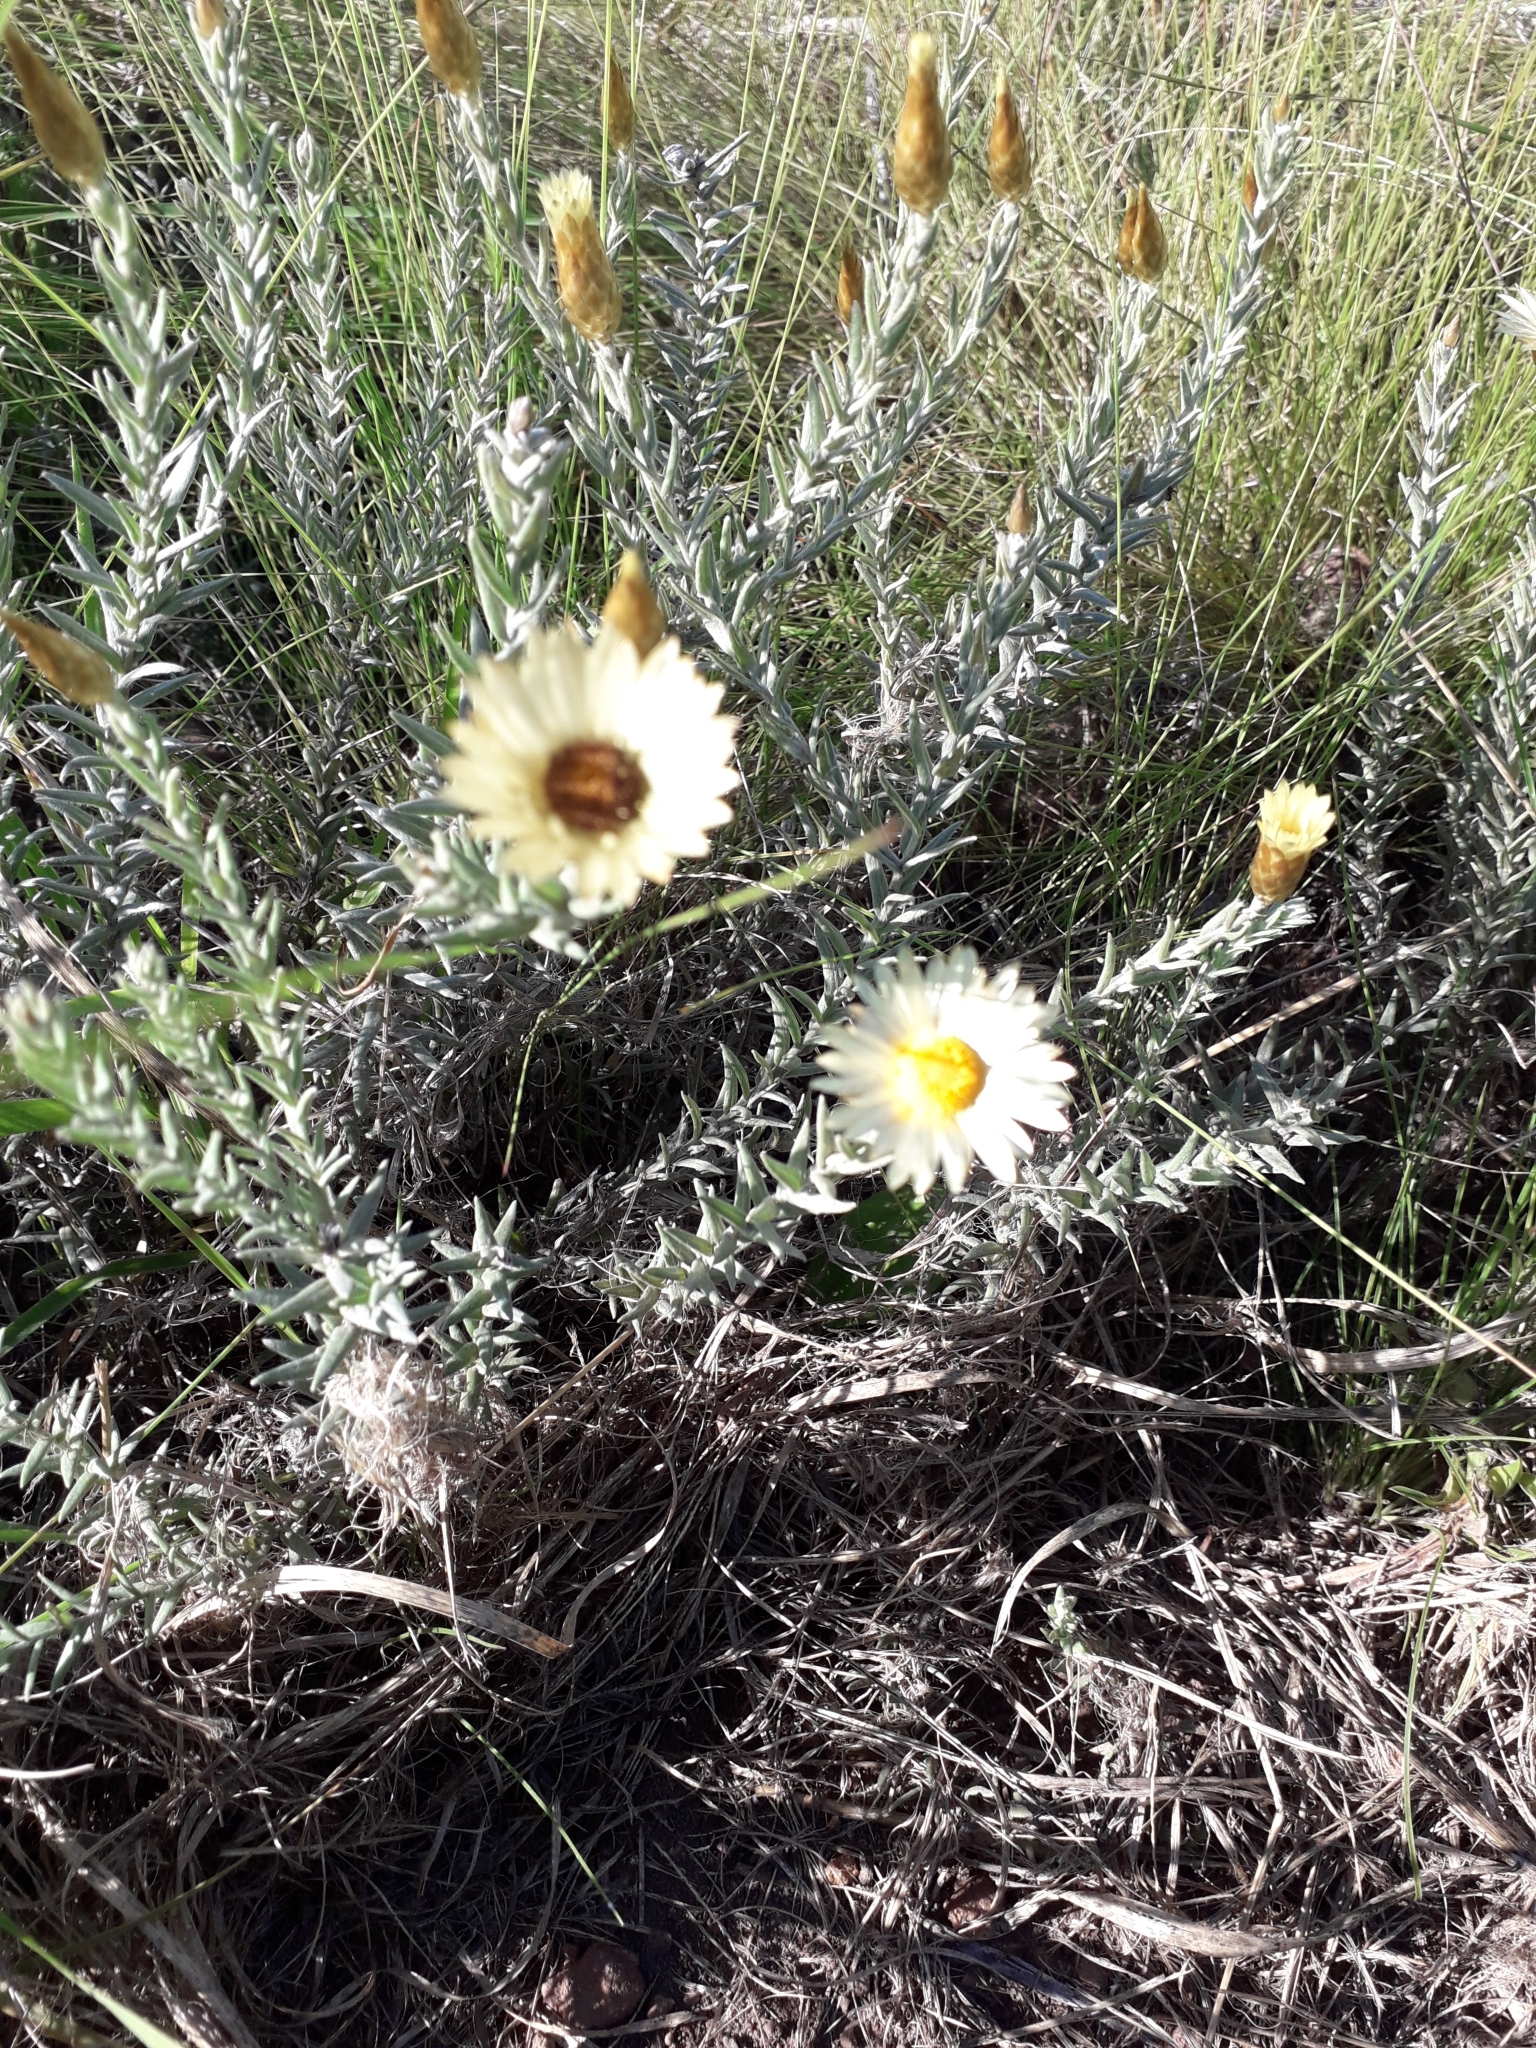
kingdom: Plantae
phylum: Tracheophyta
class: Magnoliopsida
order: Asterales
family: Asteraceae
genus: Helichrysum
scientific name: Helichrysum herbaceum
